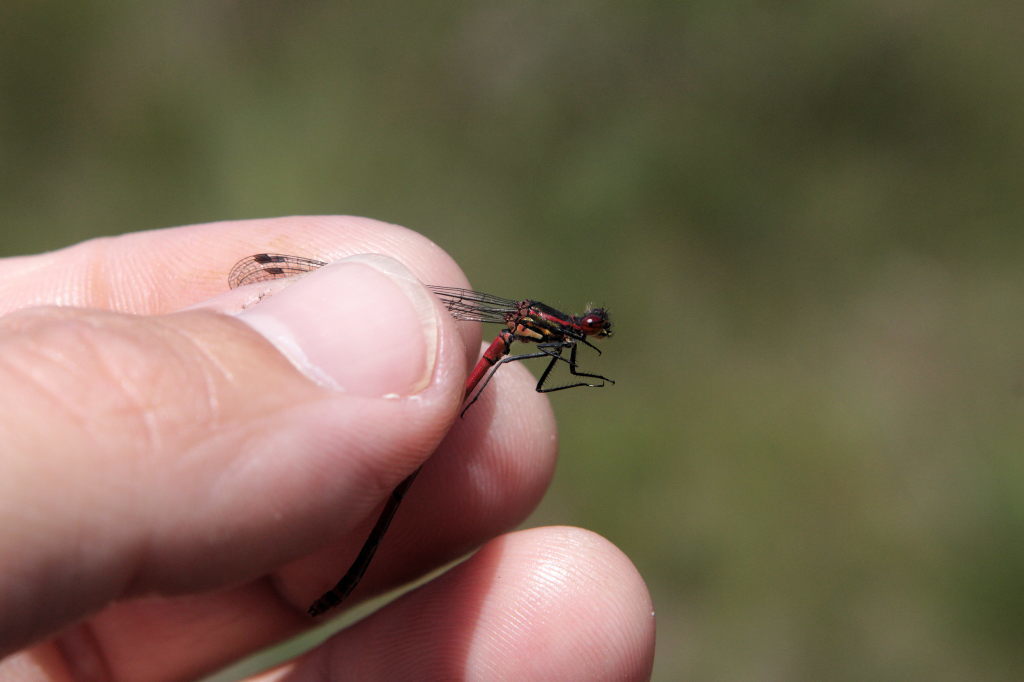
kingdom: Animalia
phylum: Arthropoda
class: Insecta
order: Odonata
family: Coenagrionidae
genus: Pyrrhosoma
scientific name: Pyrrhosoma nymphula
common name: Large red damsel
